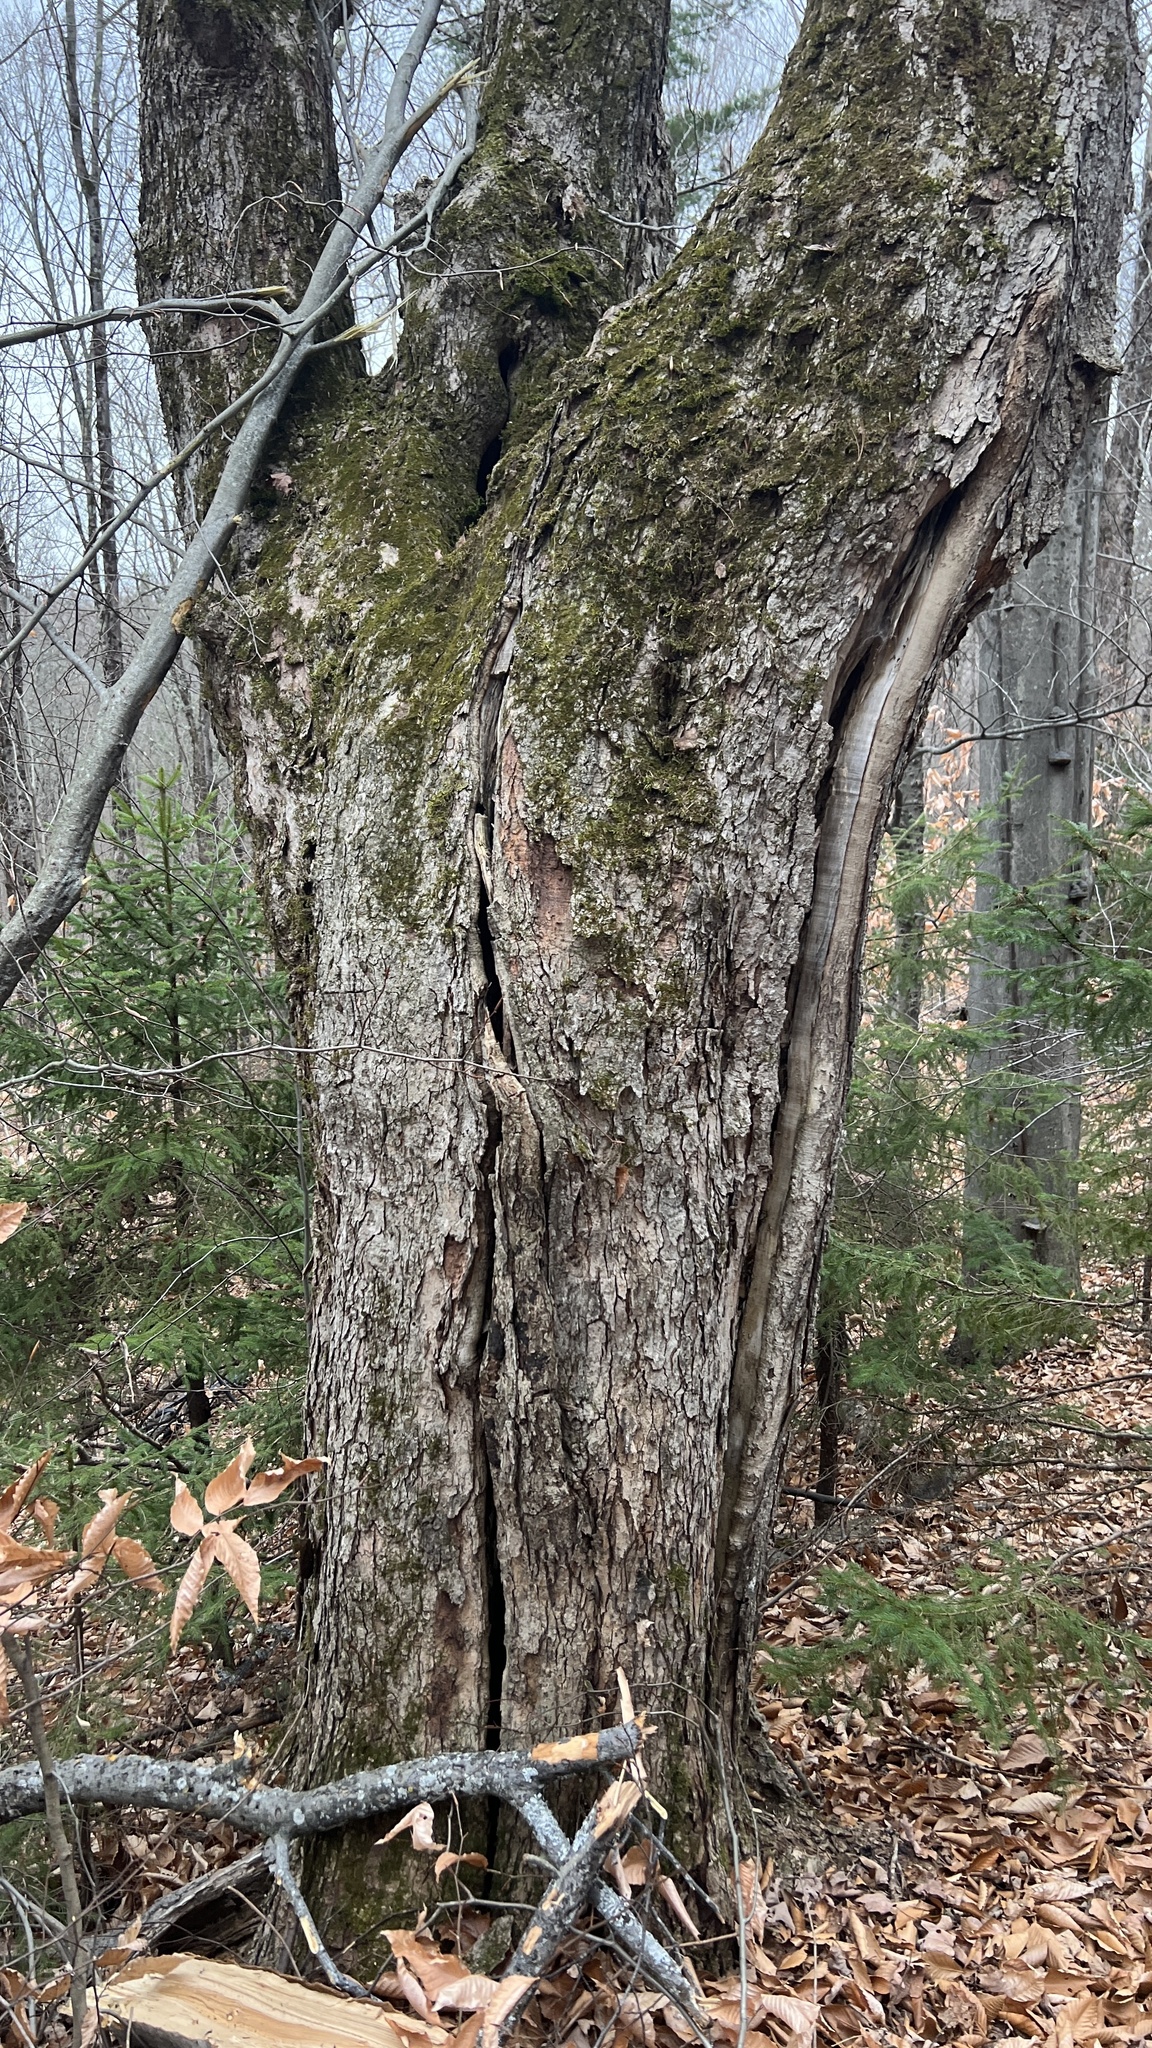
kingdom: Plantae
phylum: Tracheophyta
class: Magnoliopsida
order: Sapindales
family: Sapindaceae
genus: Acer
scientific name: Acer saccharum
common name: Sugar maple
